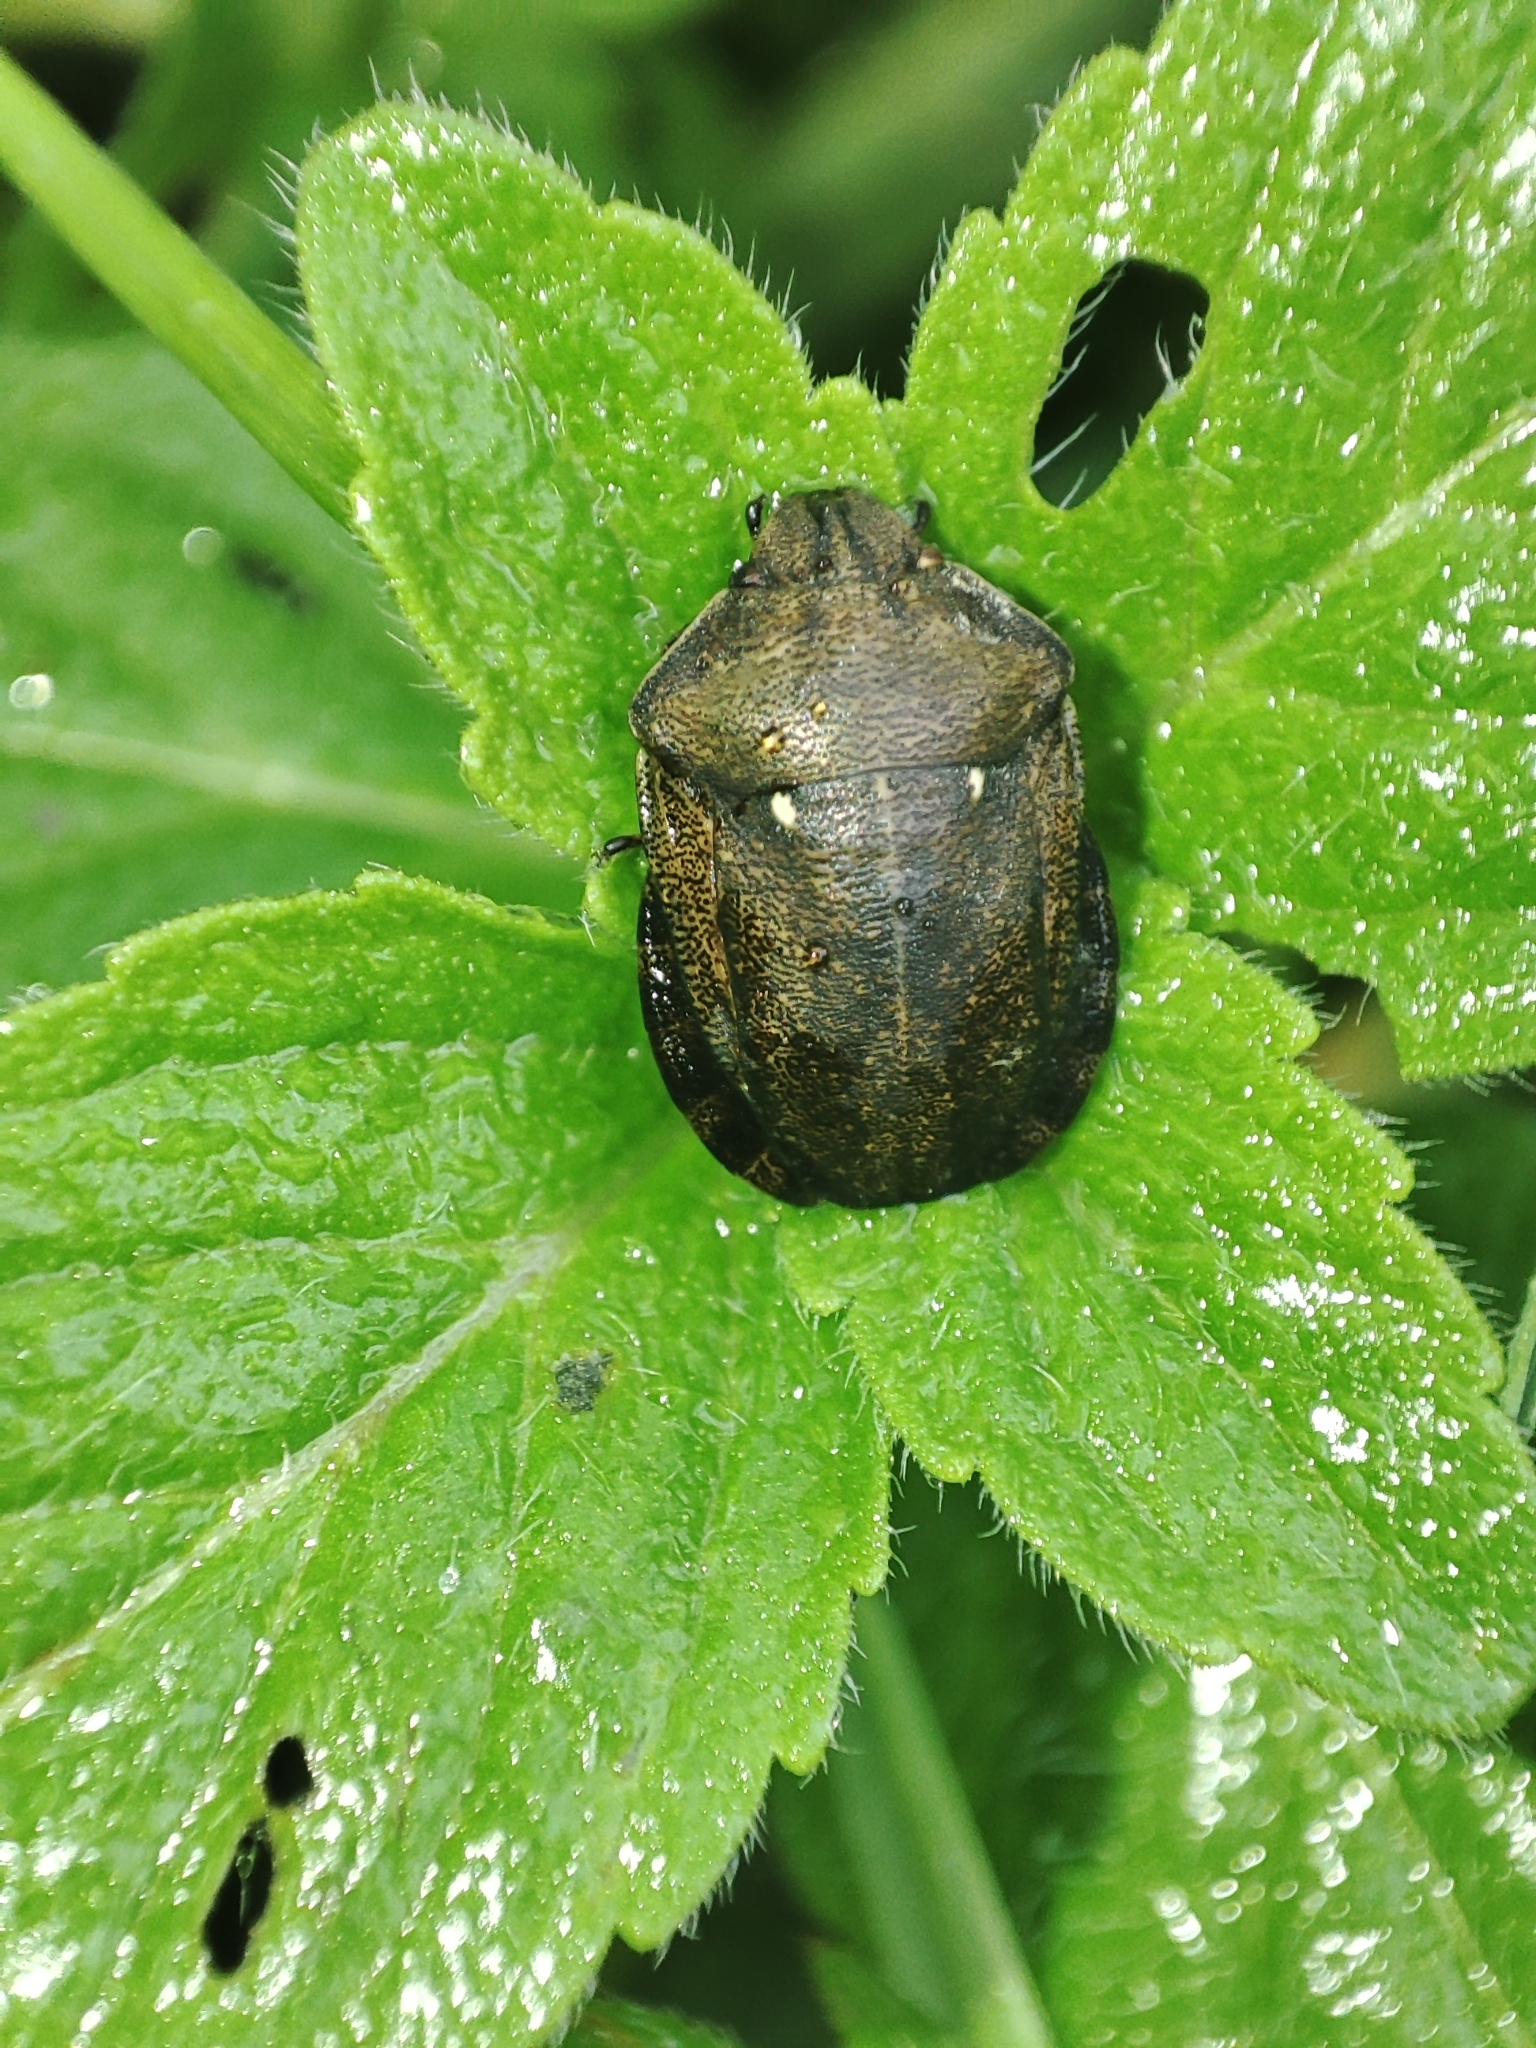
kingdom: Animalia
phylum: Arthropoda
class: Insecta
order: Hemiptera
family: Scutelleridae
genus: Eurygaster
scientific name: Eurygaster testudinaria
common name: Tortoise bug
